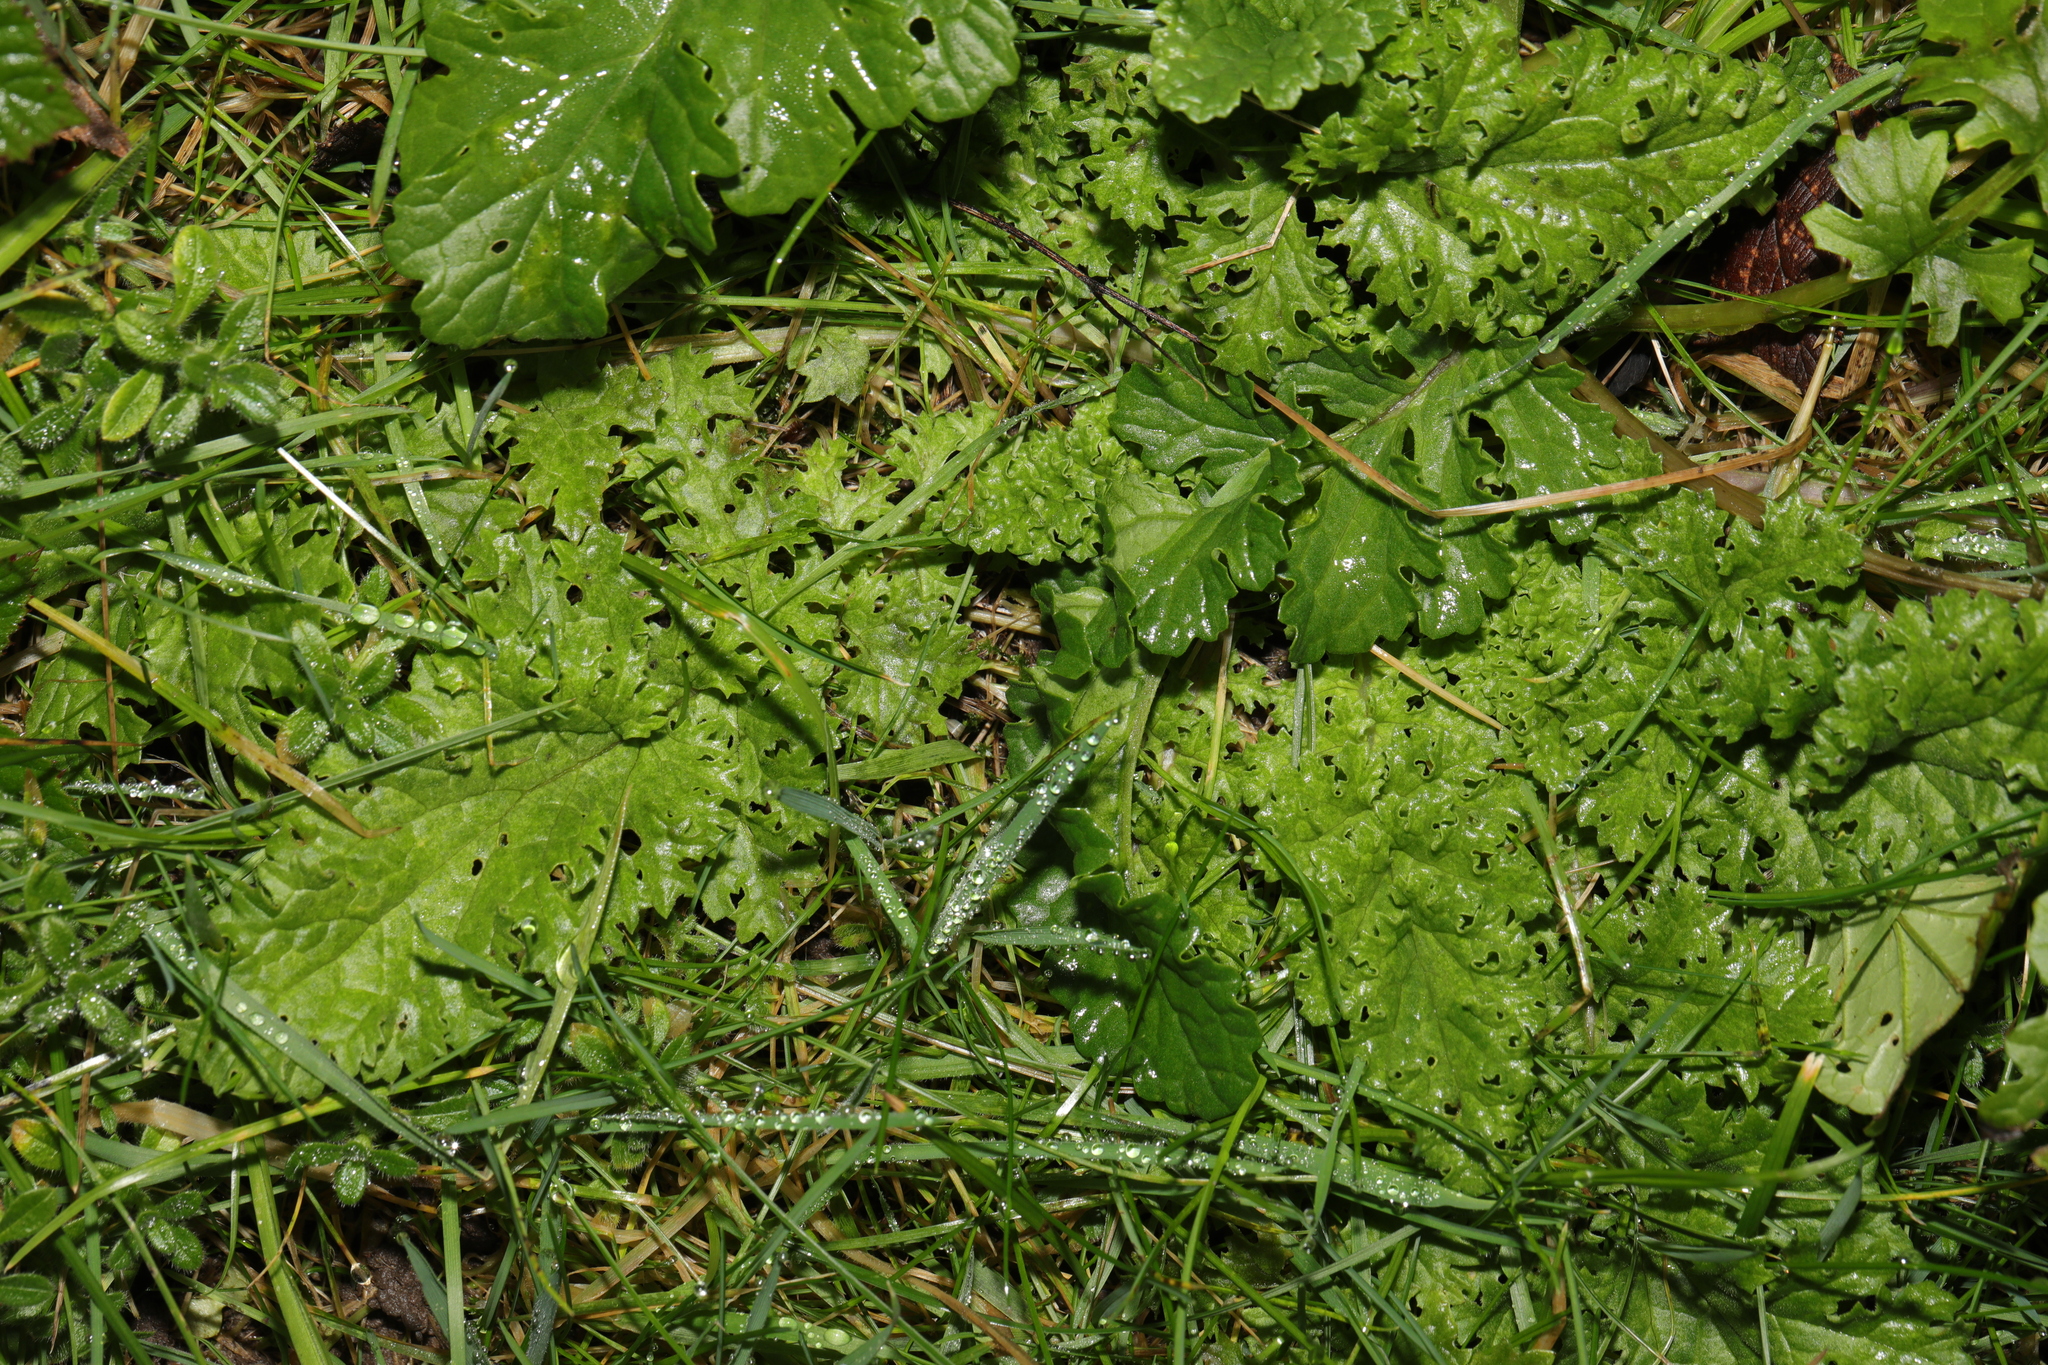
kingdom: Plantae
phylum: Tracheophyta
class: Magnoliopsida
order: Asterales
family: Asteraceae
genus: Jacobaea
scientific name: Jacobaea vulgaris
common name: Stinking willie
